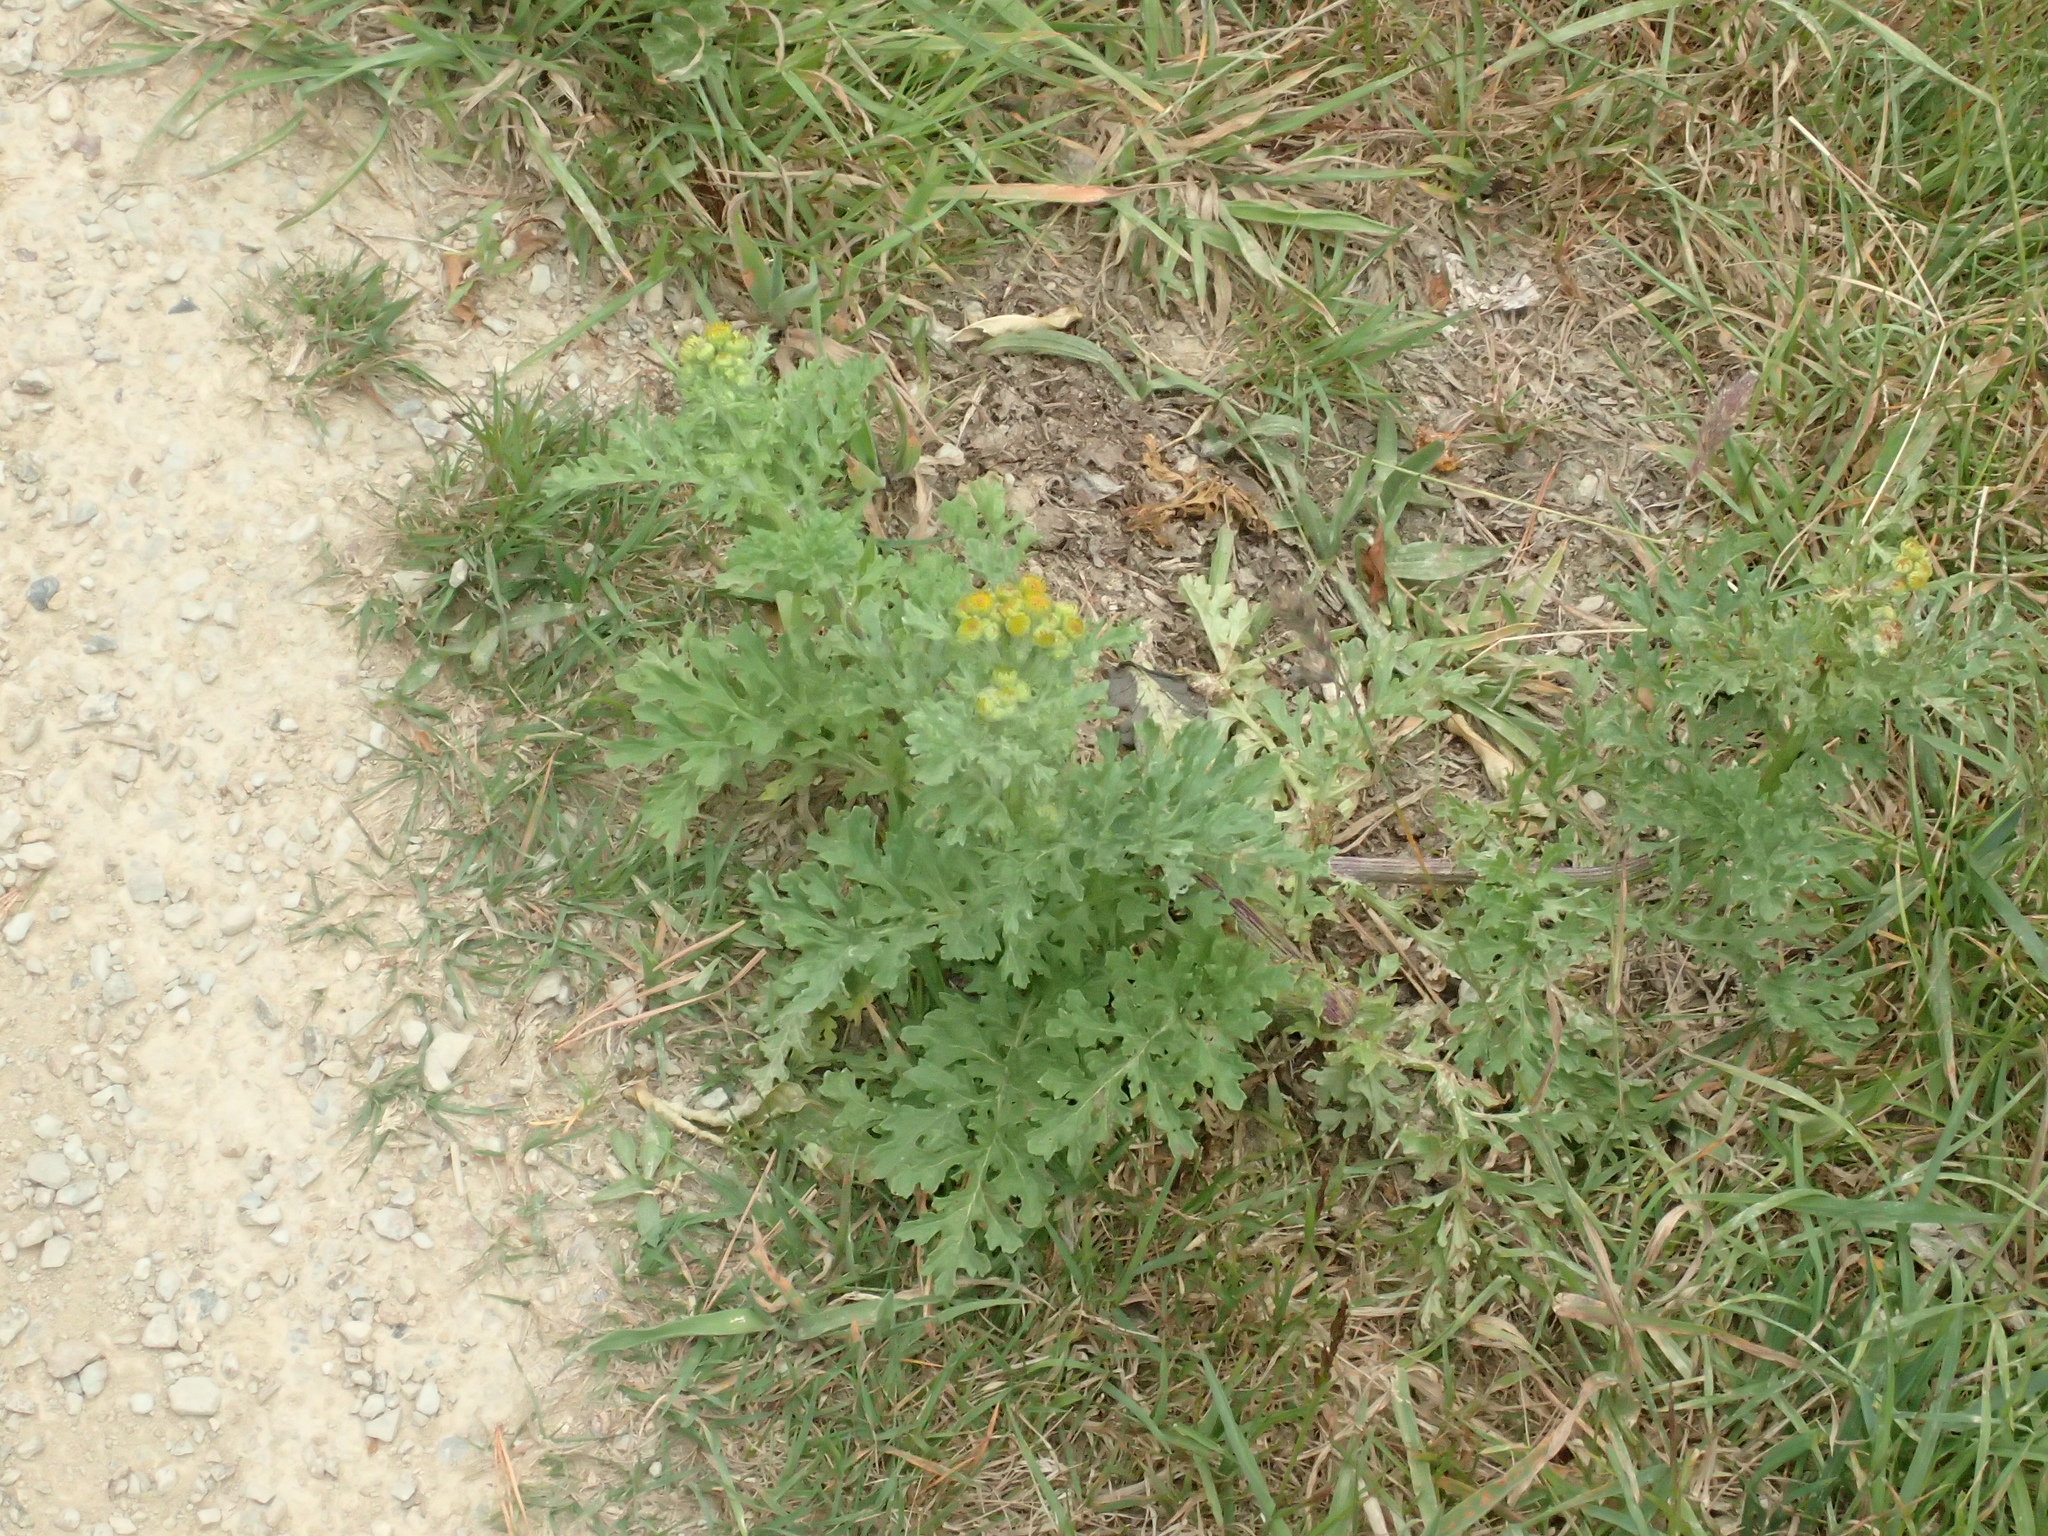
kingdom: Plantae
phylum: Tracheophyta
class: Magnoliopsida
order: Asterales
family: Asteraceae
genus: Jacobaea
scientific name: Jacobaea vulgaris
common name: Stinking willie
